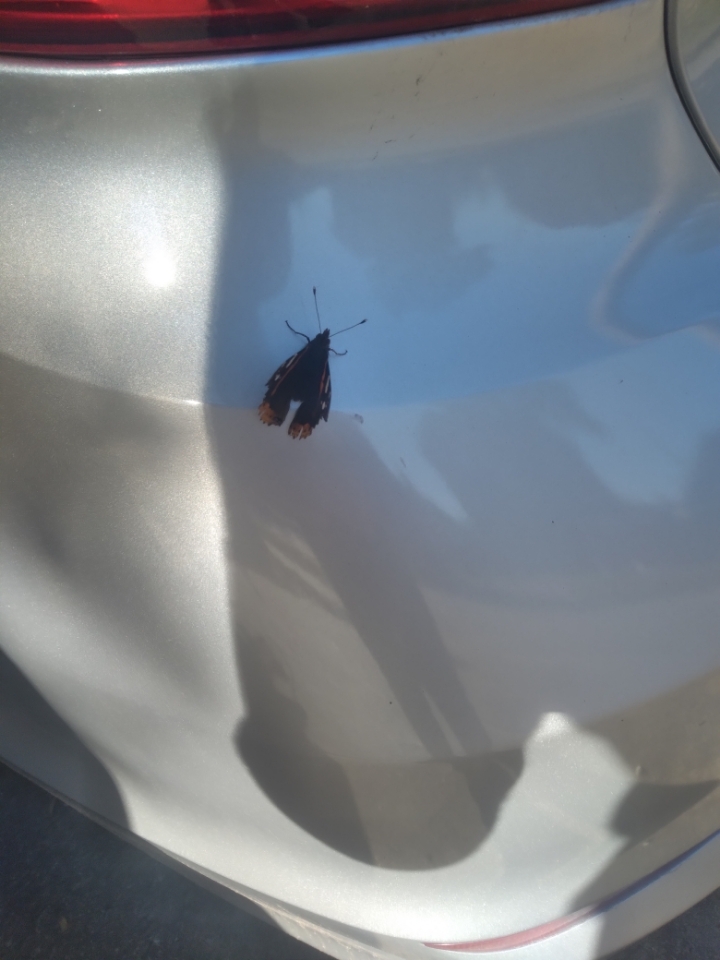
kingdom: Animalia
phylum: Arthropoda
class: Insecta
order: Lepidoptera
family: Nymphalidae
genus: Vanessa
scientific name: Vanessa atalanta
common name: Red admiral
